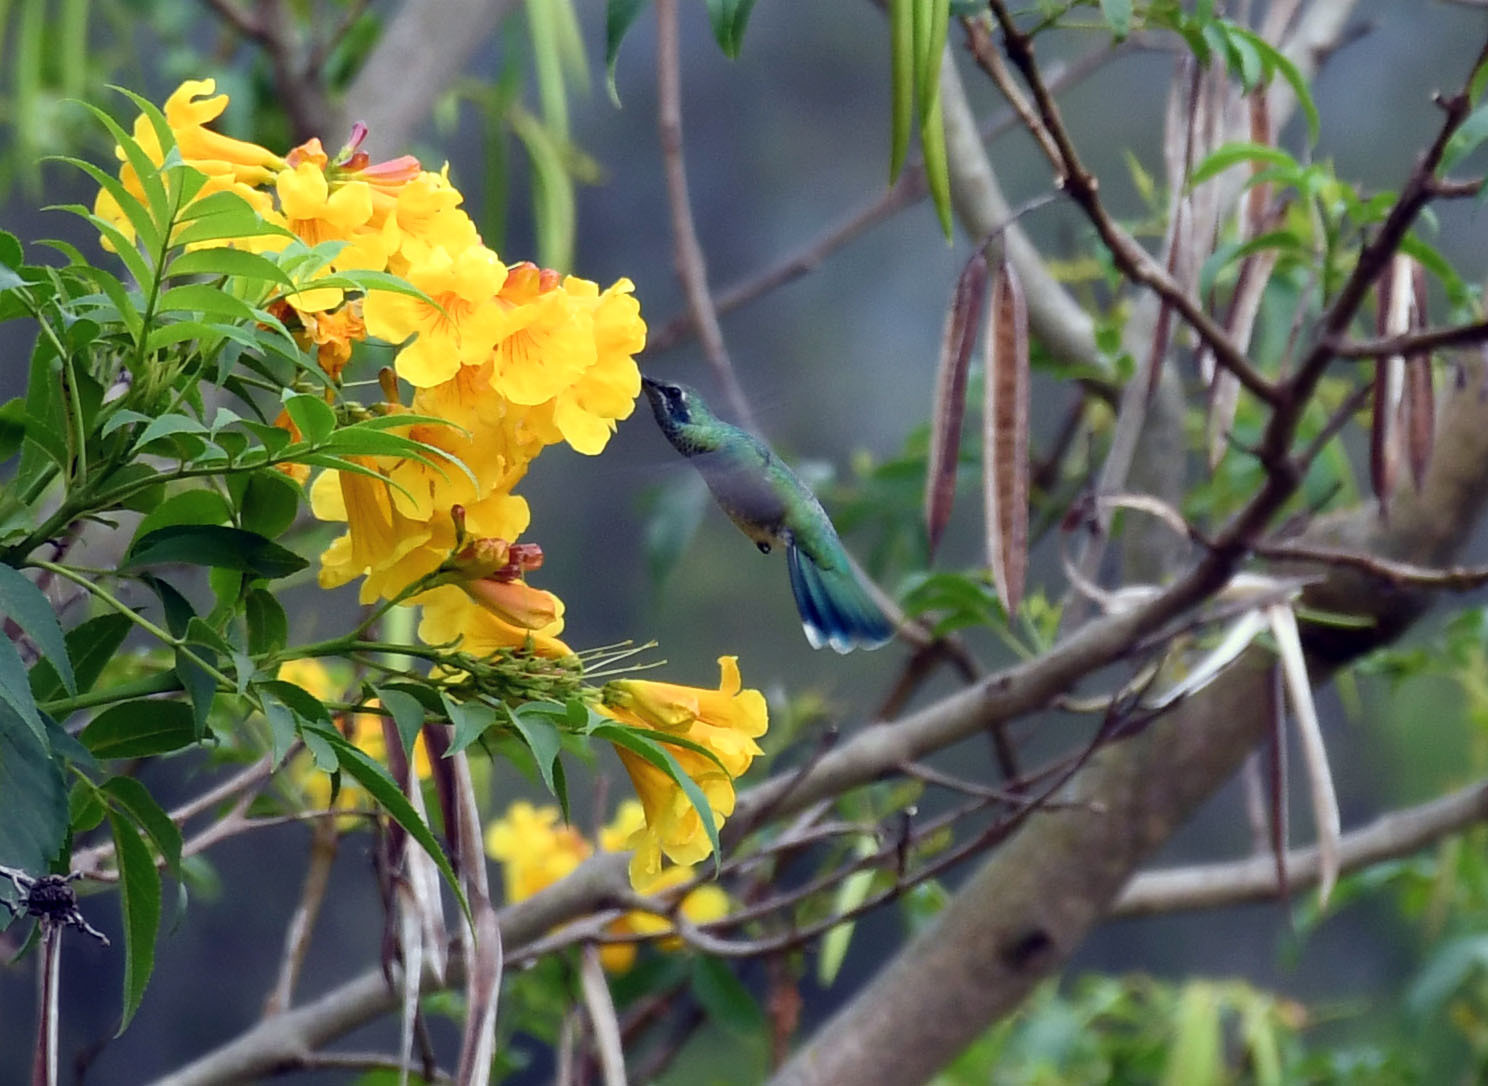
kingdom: Animalia
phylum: Chordata
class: Aves
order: Apodiformes
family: Trochilidae
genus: Colibri
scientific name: Colibri coruscans
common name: Sparkling violetear
